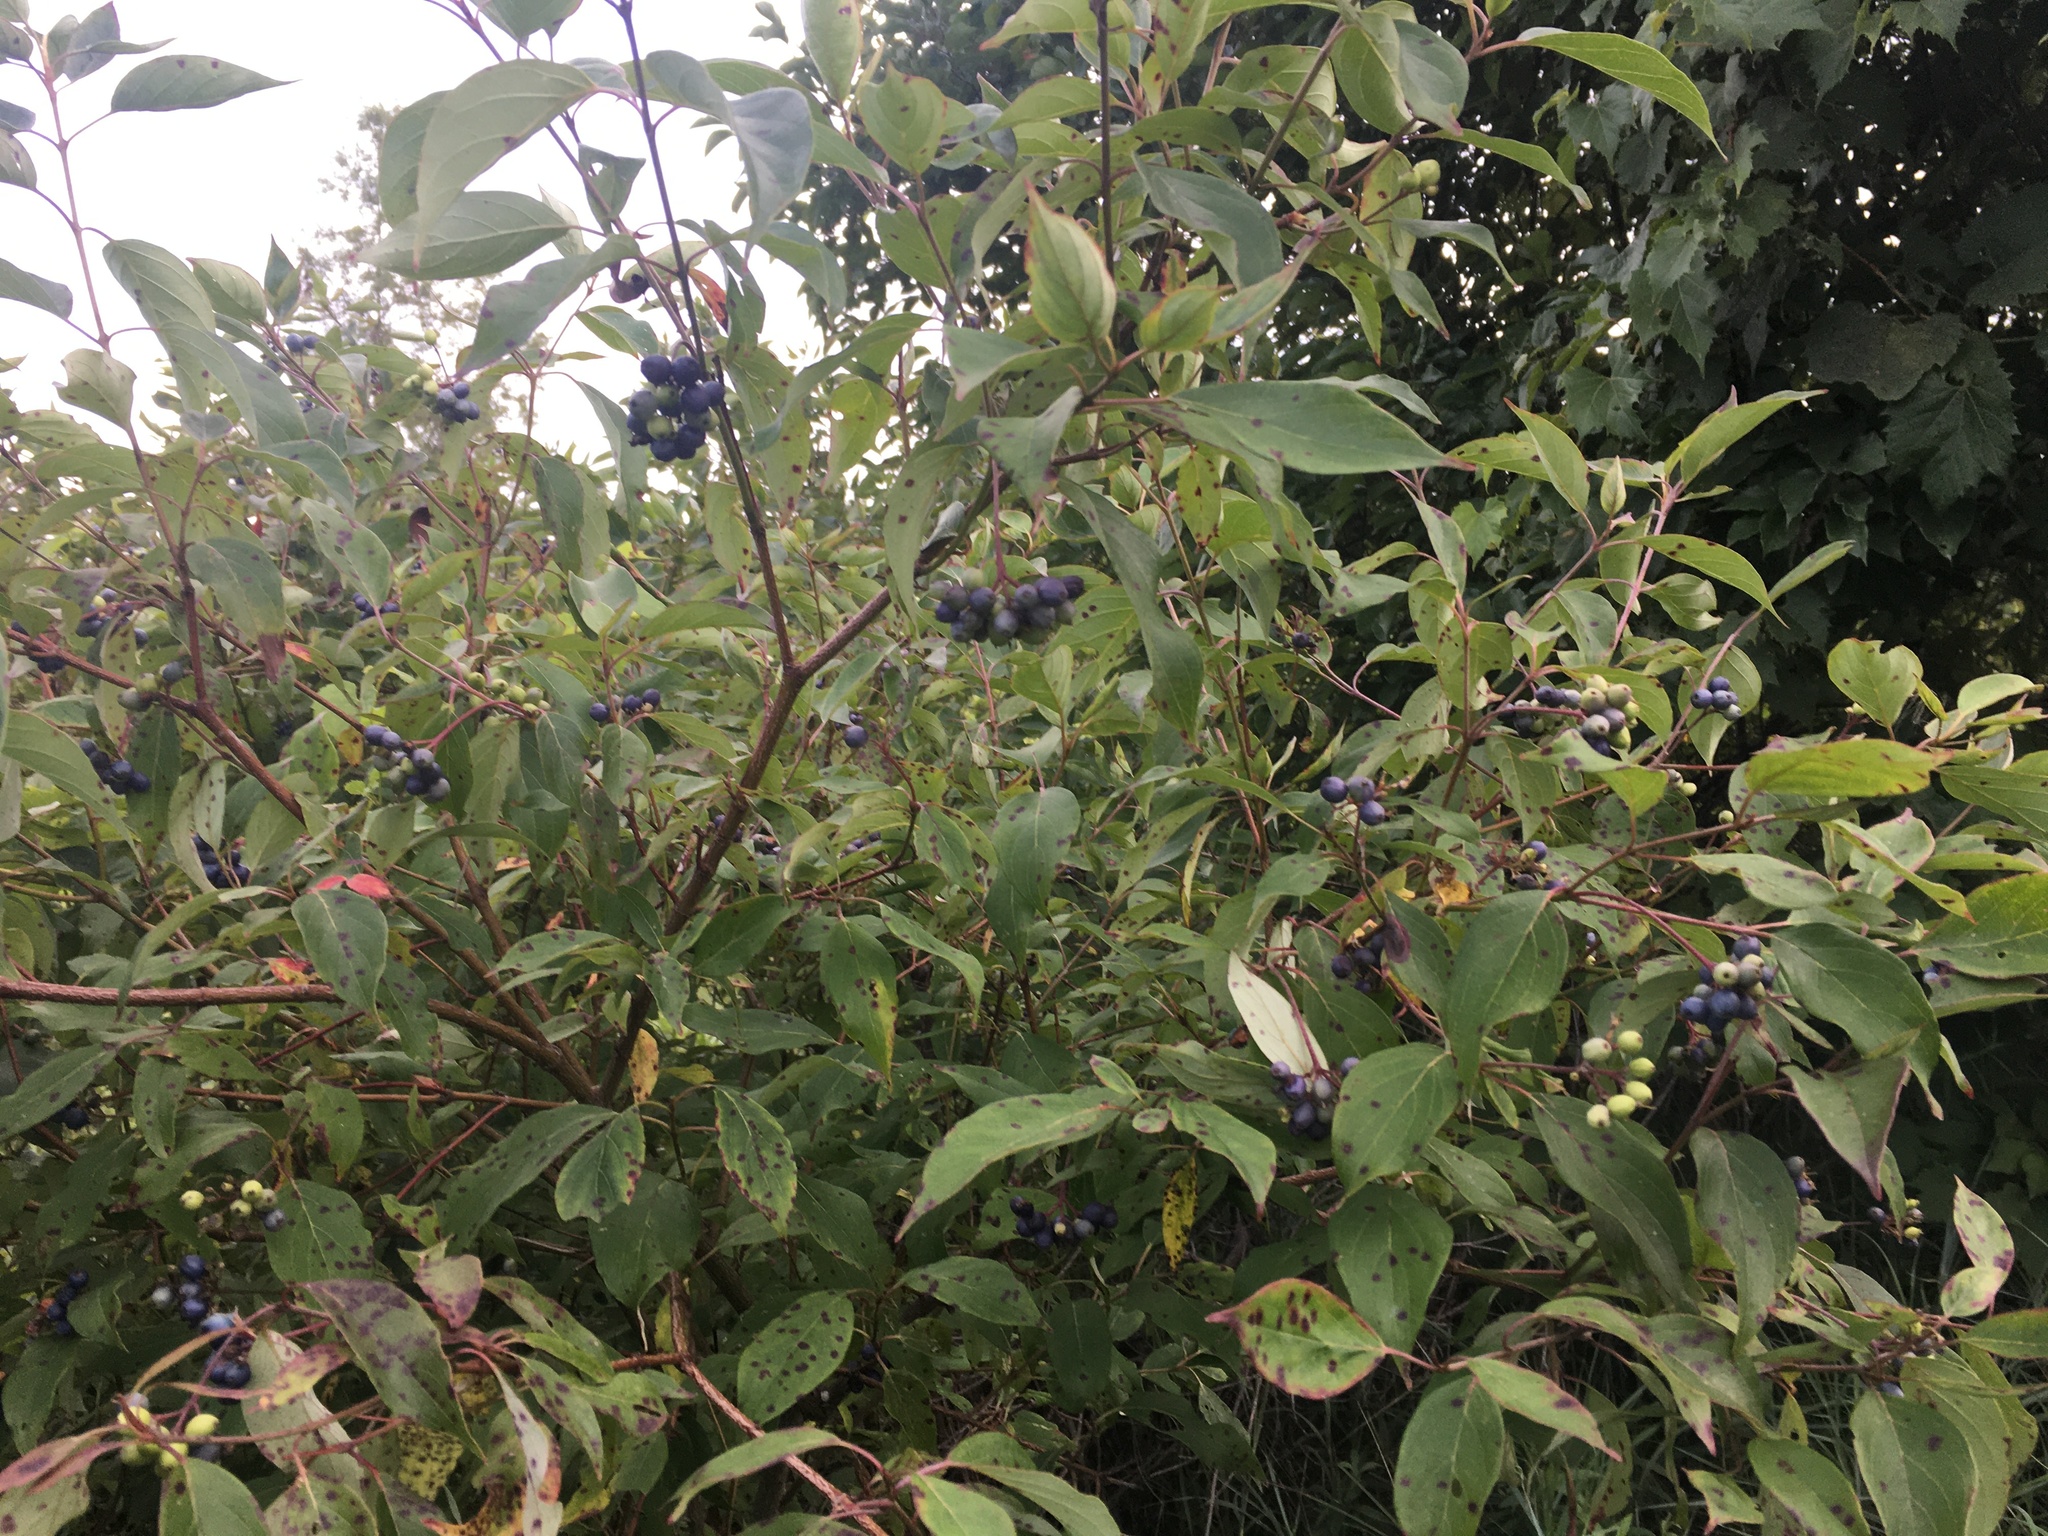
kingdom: Plantae
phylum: Tracheophyta
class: Magnoliopsida
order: Cornales
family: Cornaceae
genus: Cornus
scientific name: Cornus obliqua
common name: Pale dogwood
